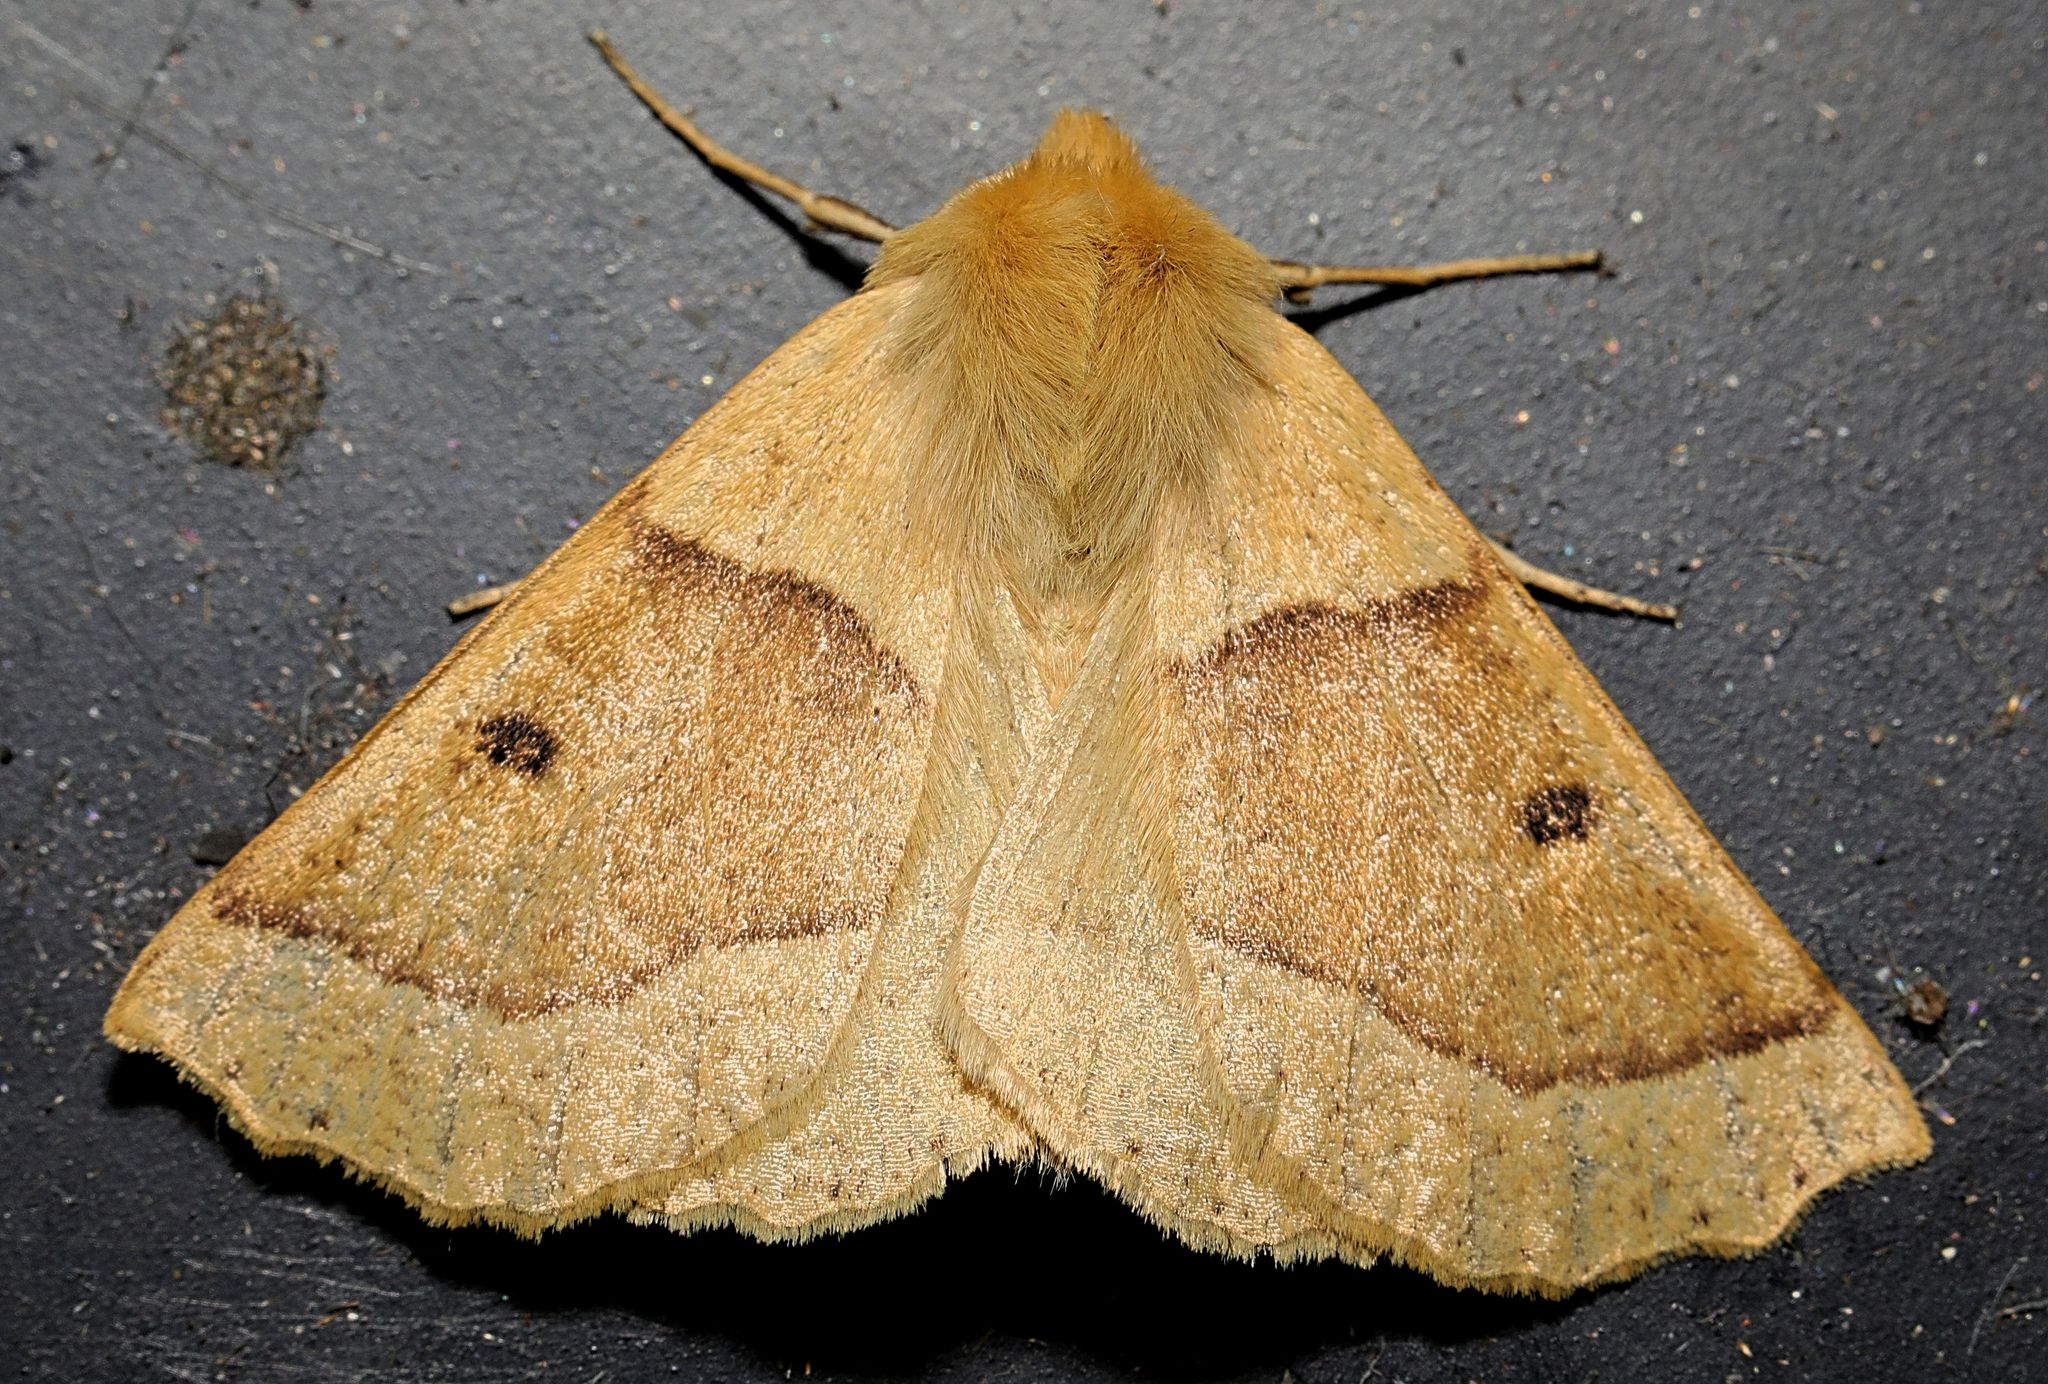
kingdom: Animalia
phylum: Arthropoda
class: Insecta
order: Lepidoptera
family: Geometridae
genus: Crocallis
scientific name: Crocallis elinguaria
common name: Scalloped oak
